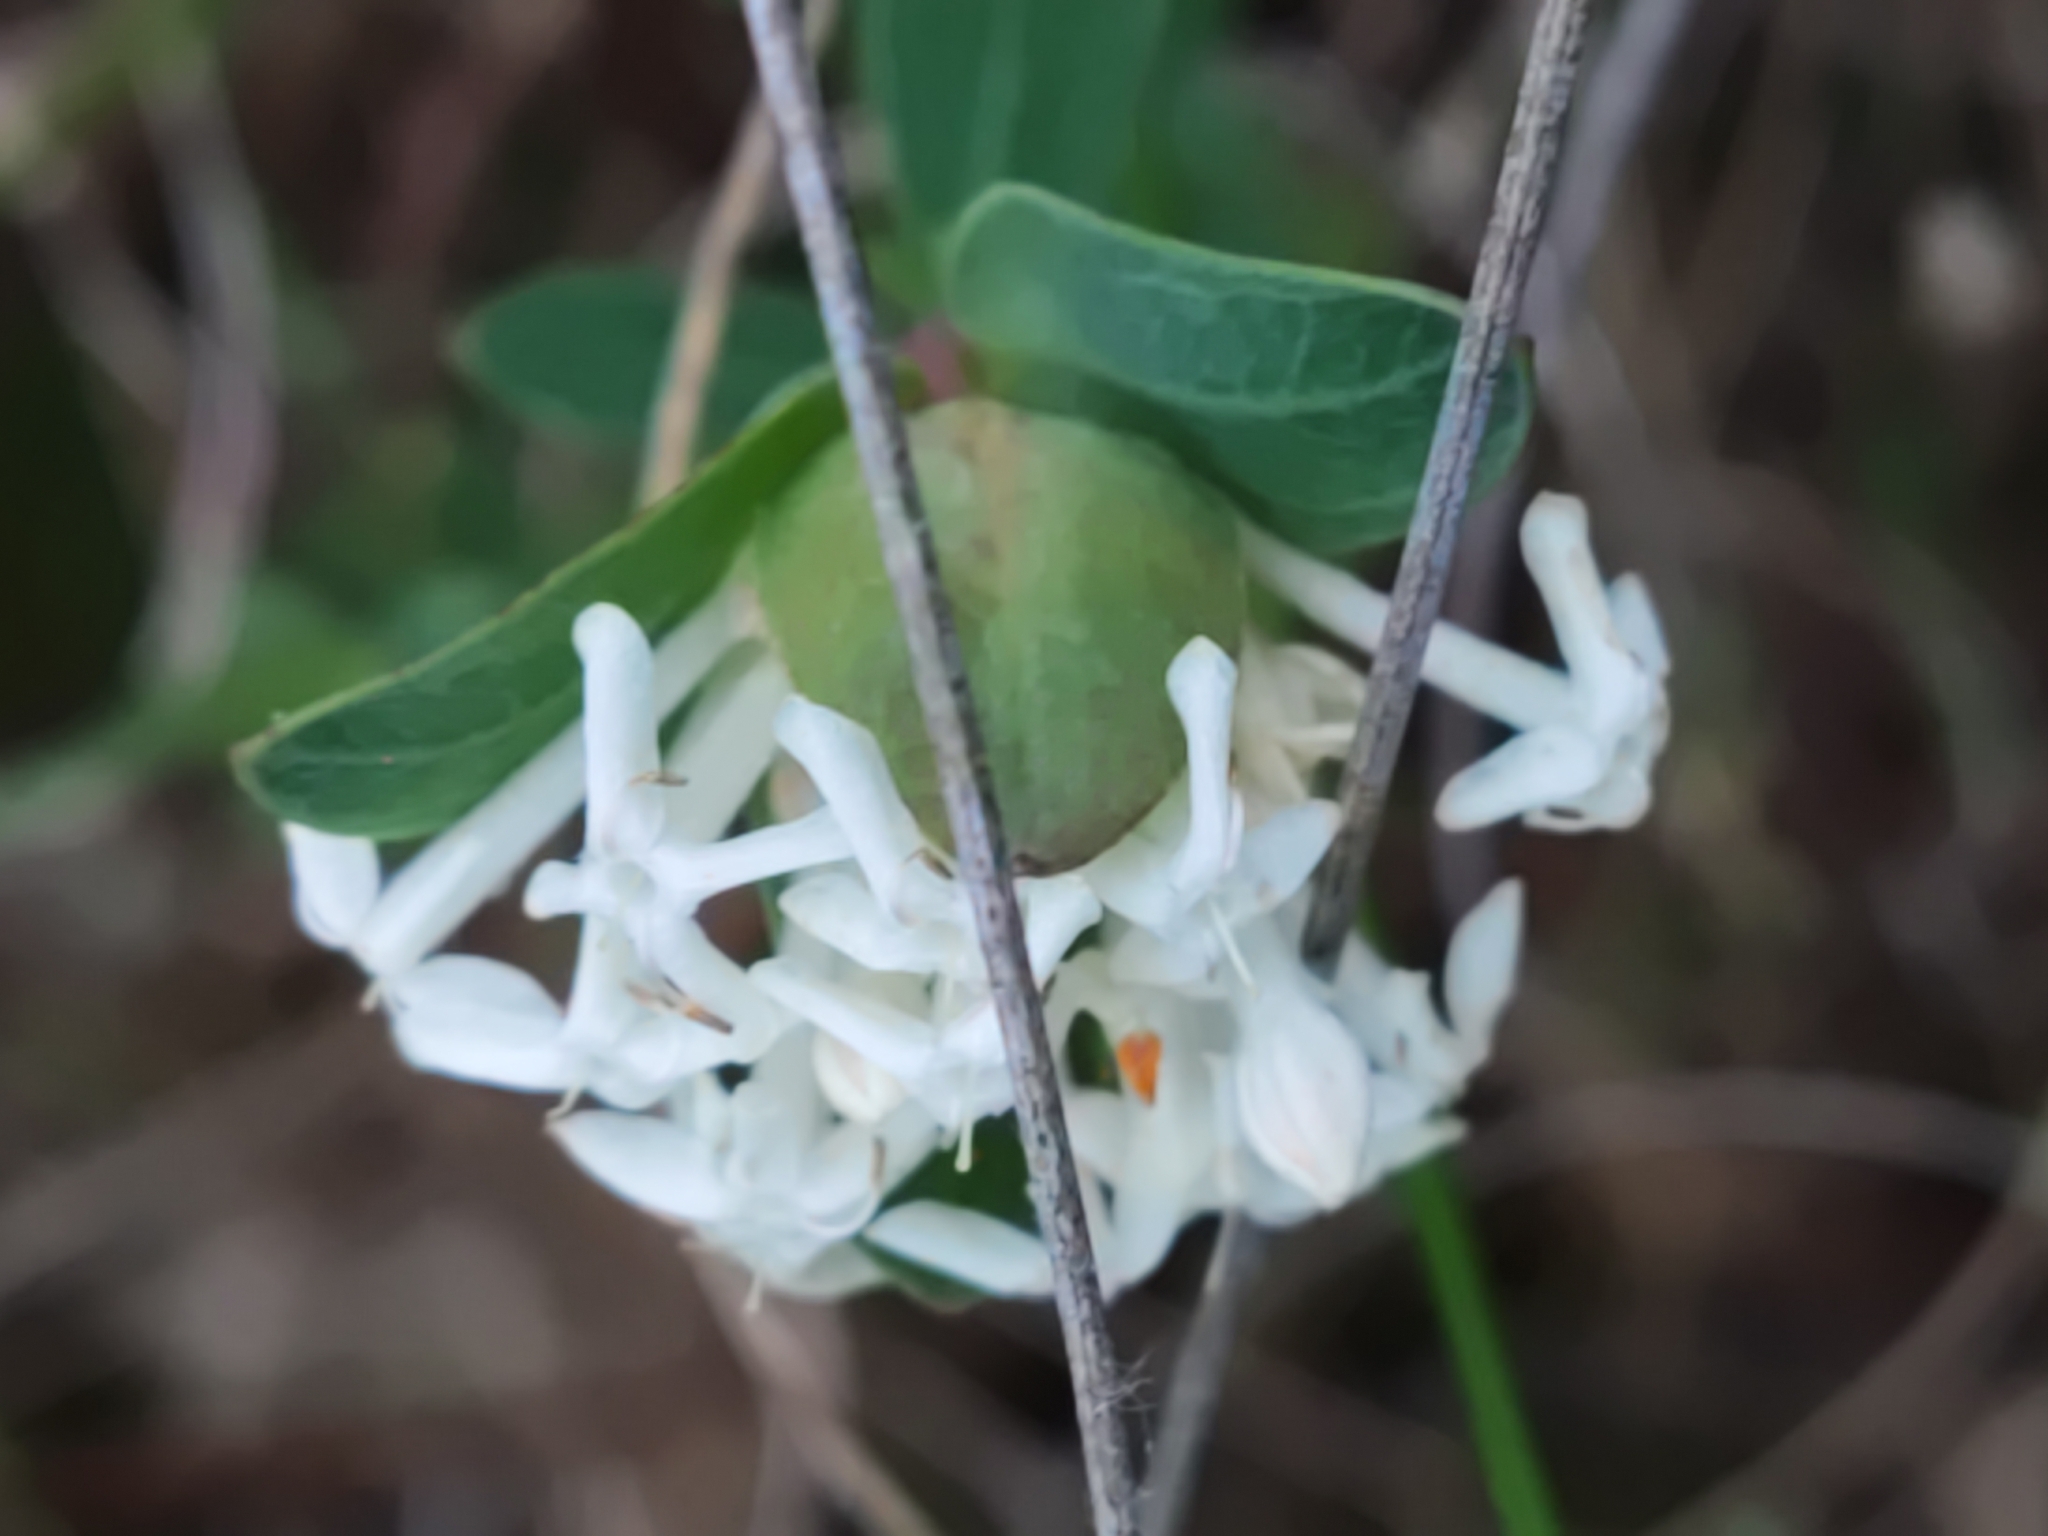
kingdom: Plantae
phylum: Tracheophyta
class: Magnoliopsida
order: Malvales
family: Thymelaeaceae
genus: Pimelea
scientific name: Pimelea linifolia
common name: Queen-of-the-bush
